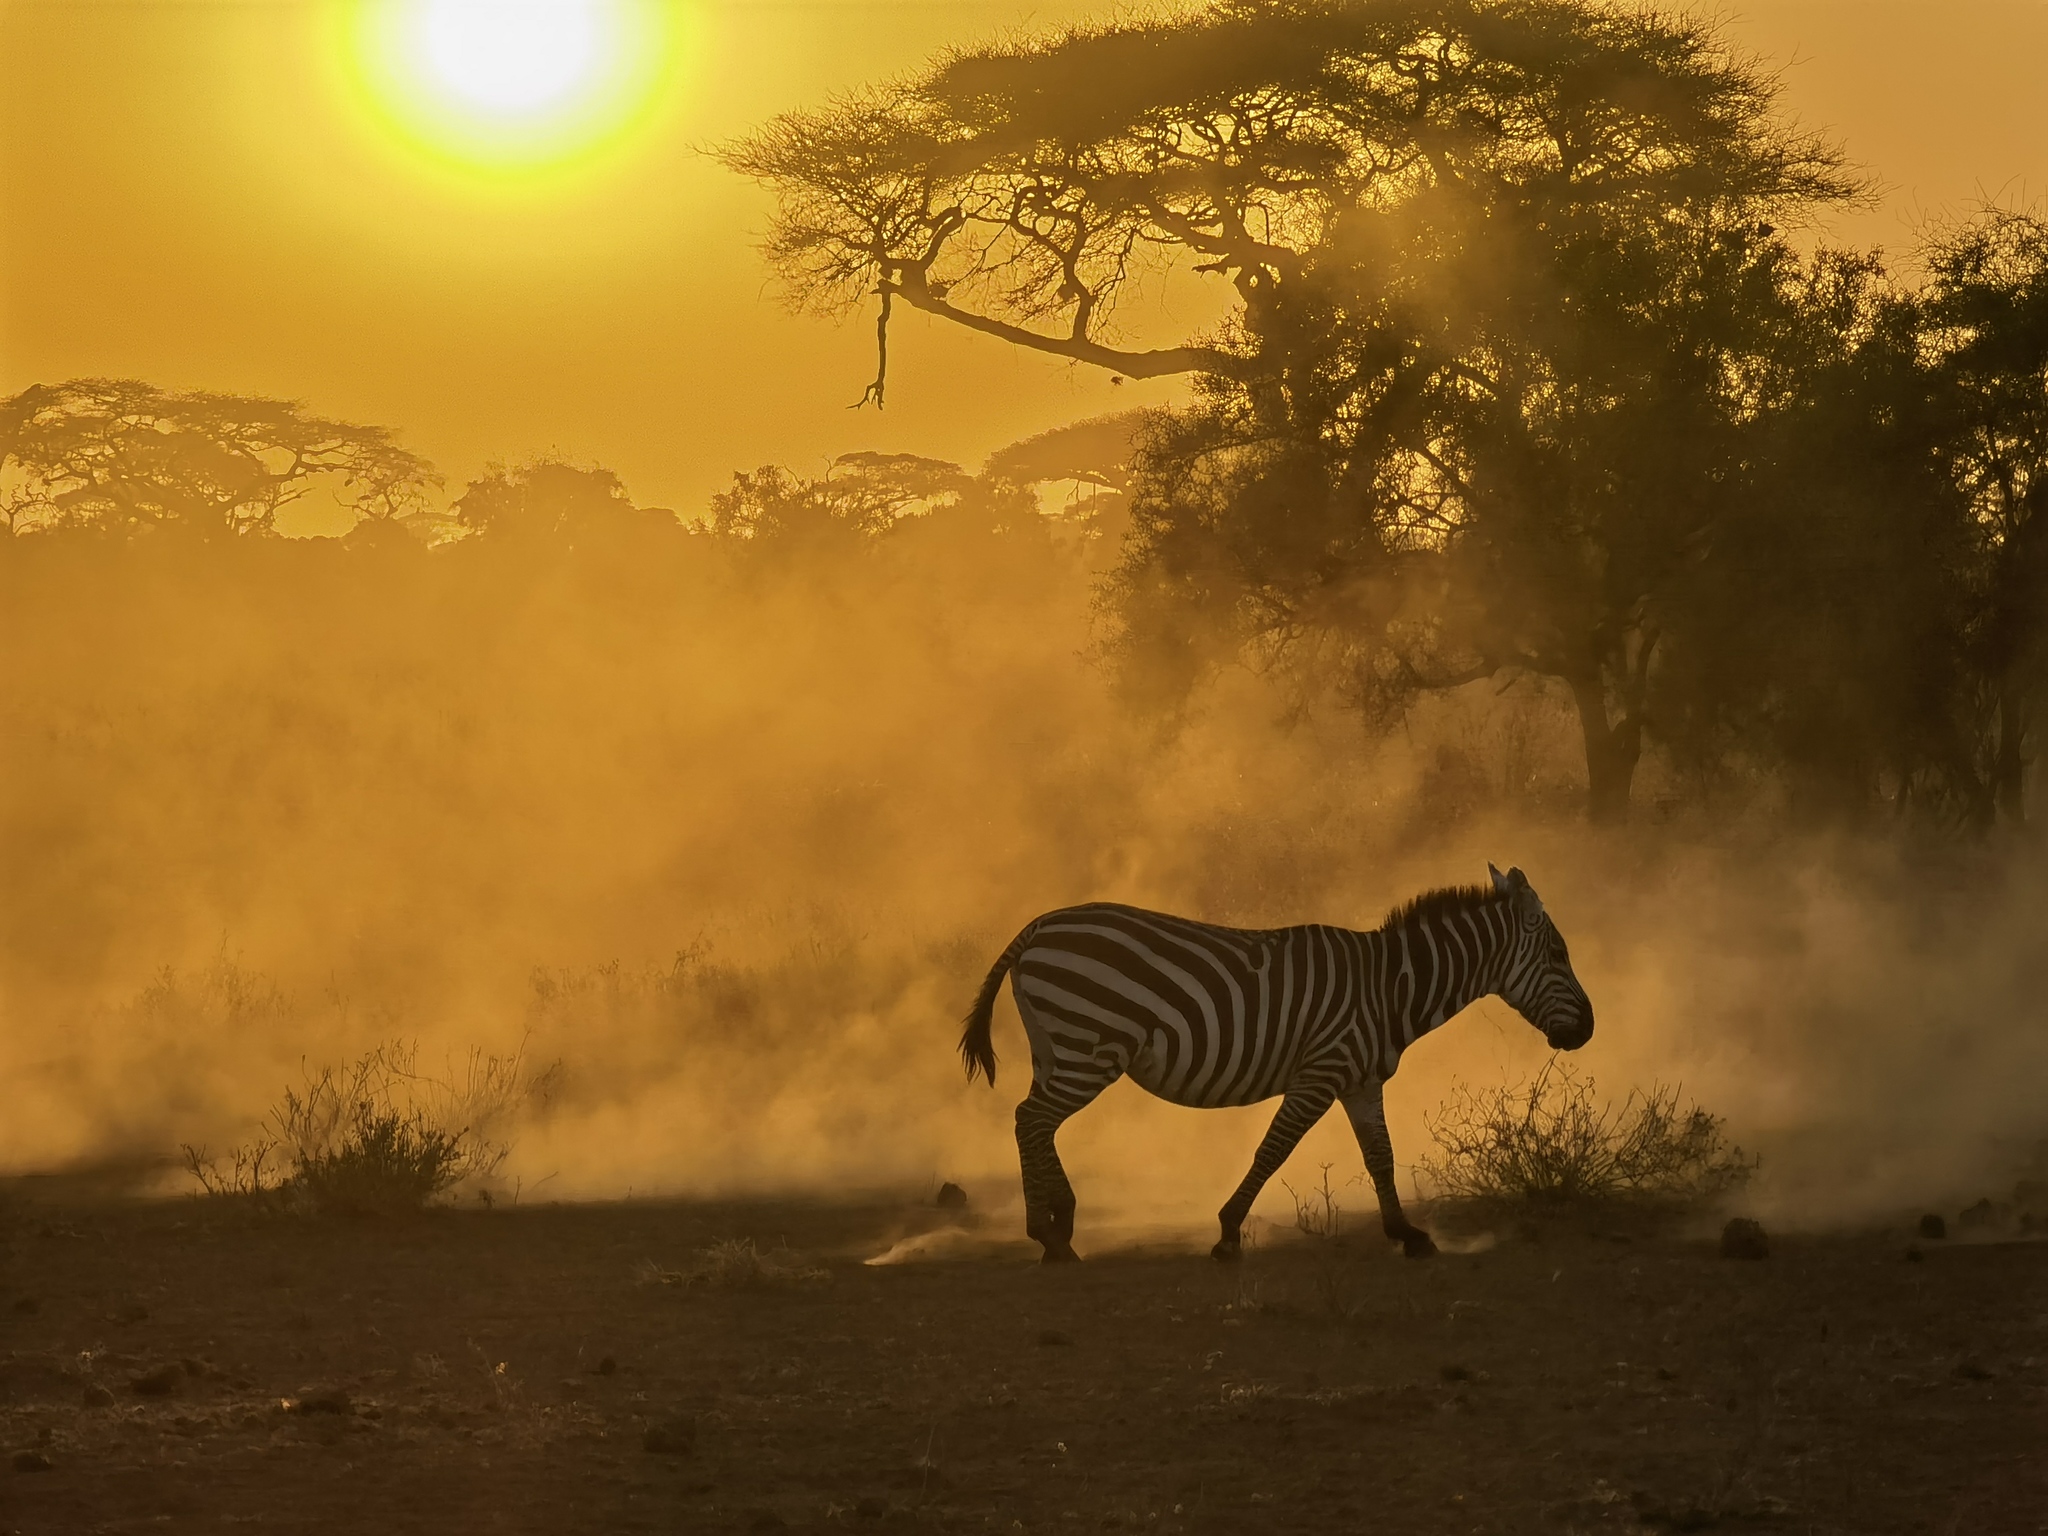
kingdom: Animalia
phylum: Chordata
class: Mammalia
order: Perissodactyla
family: Equidae
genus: Equus
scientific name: Equus quagga
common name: Plains zebra
